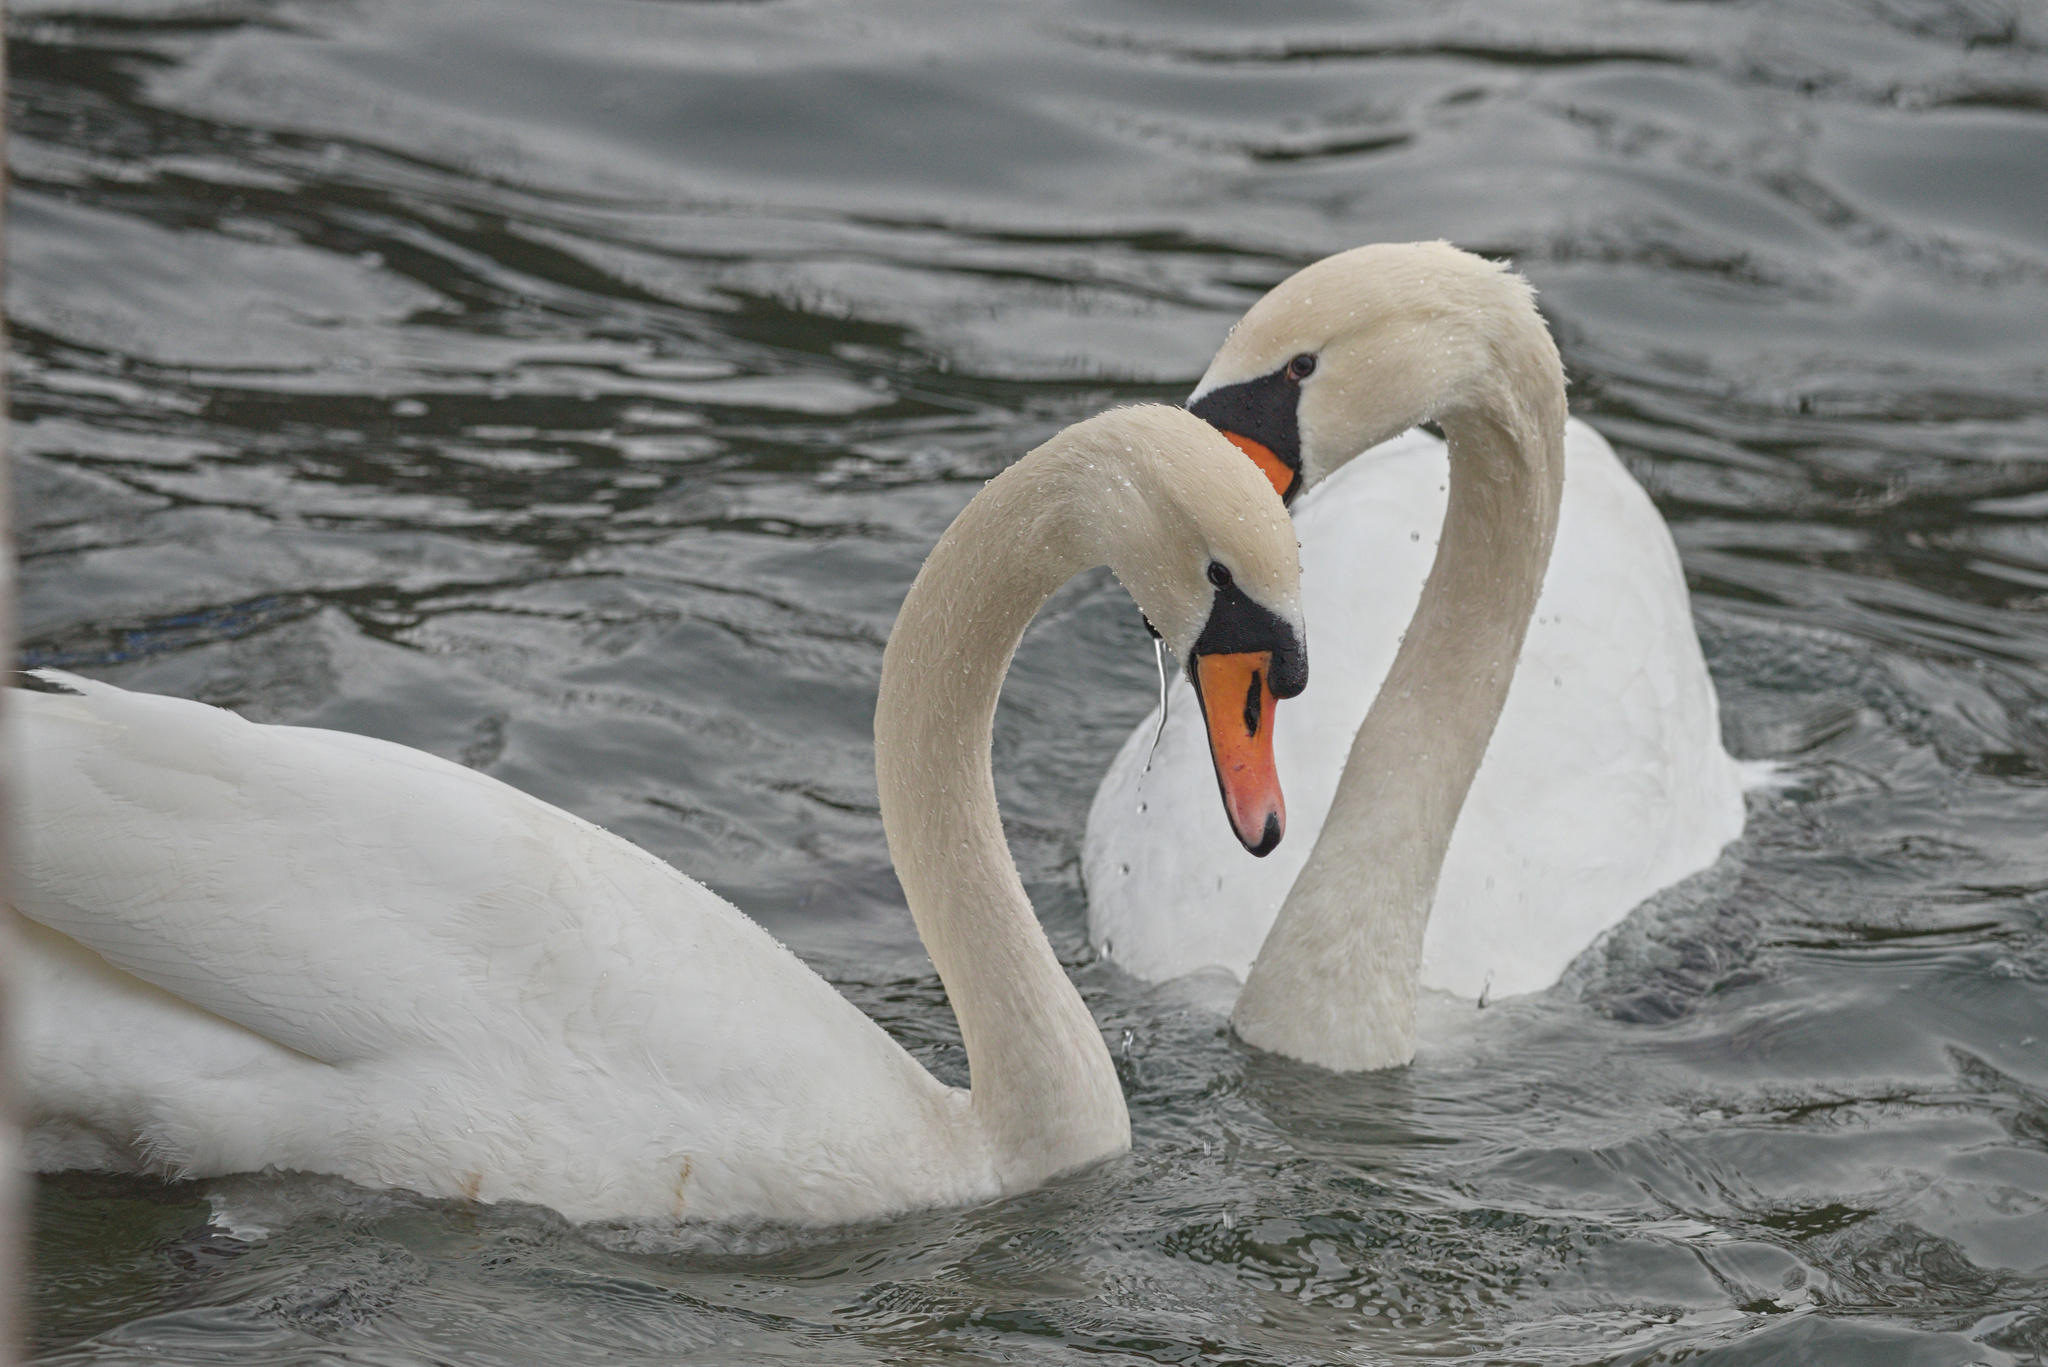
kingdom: Animalia
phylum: Chordata
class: Aves
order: Anseriformes
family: Anatidae
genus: Cygnus
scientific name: Cygnus olor
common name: Mute swan
